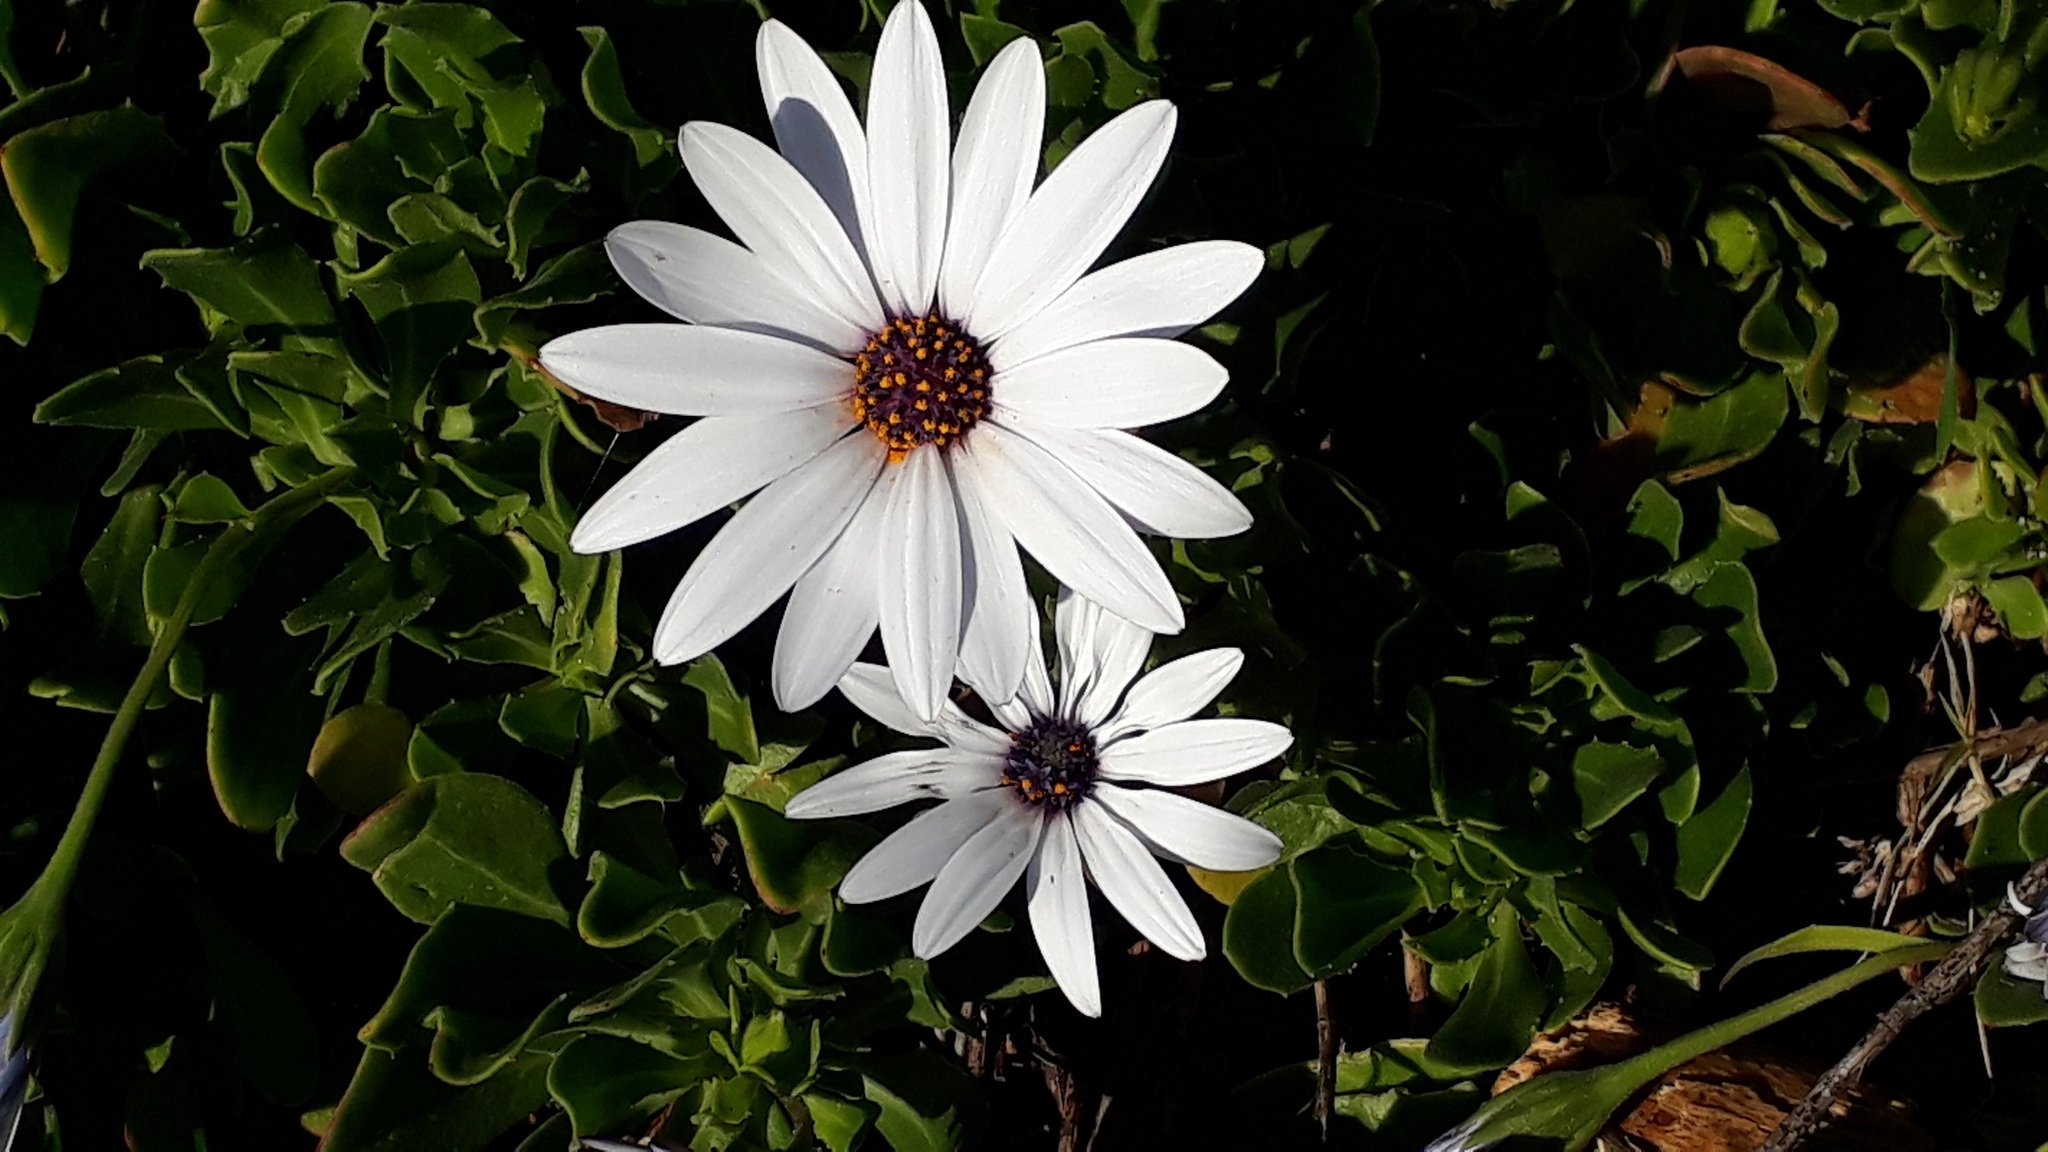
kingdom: Plantae
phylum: Tracheophyta
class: Magnoliopsida
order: Asterales
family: Asteraceae
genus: Dimorphotheca
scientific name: Dimorphotheca ecklonis
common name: Vanstaden's river daisy
